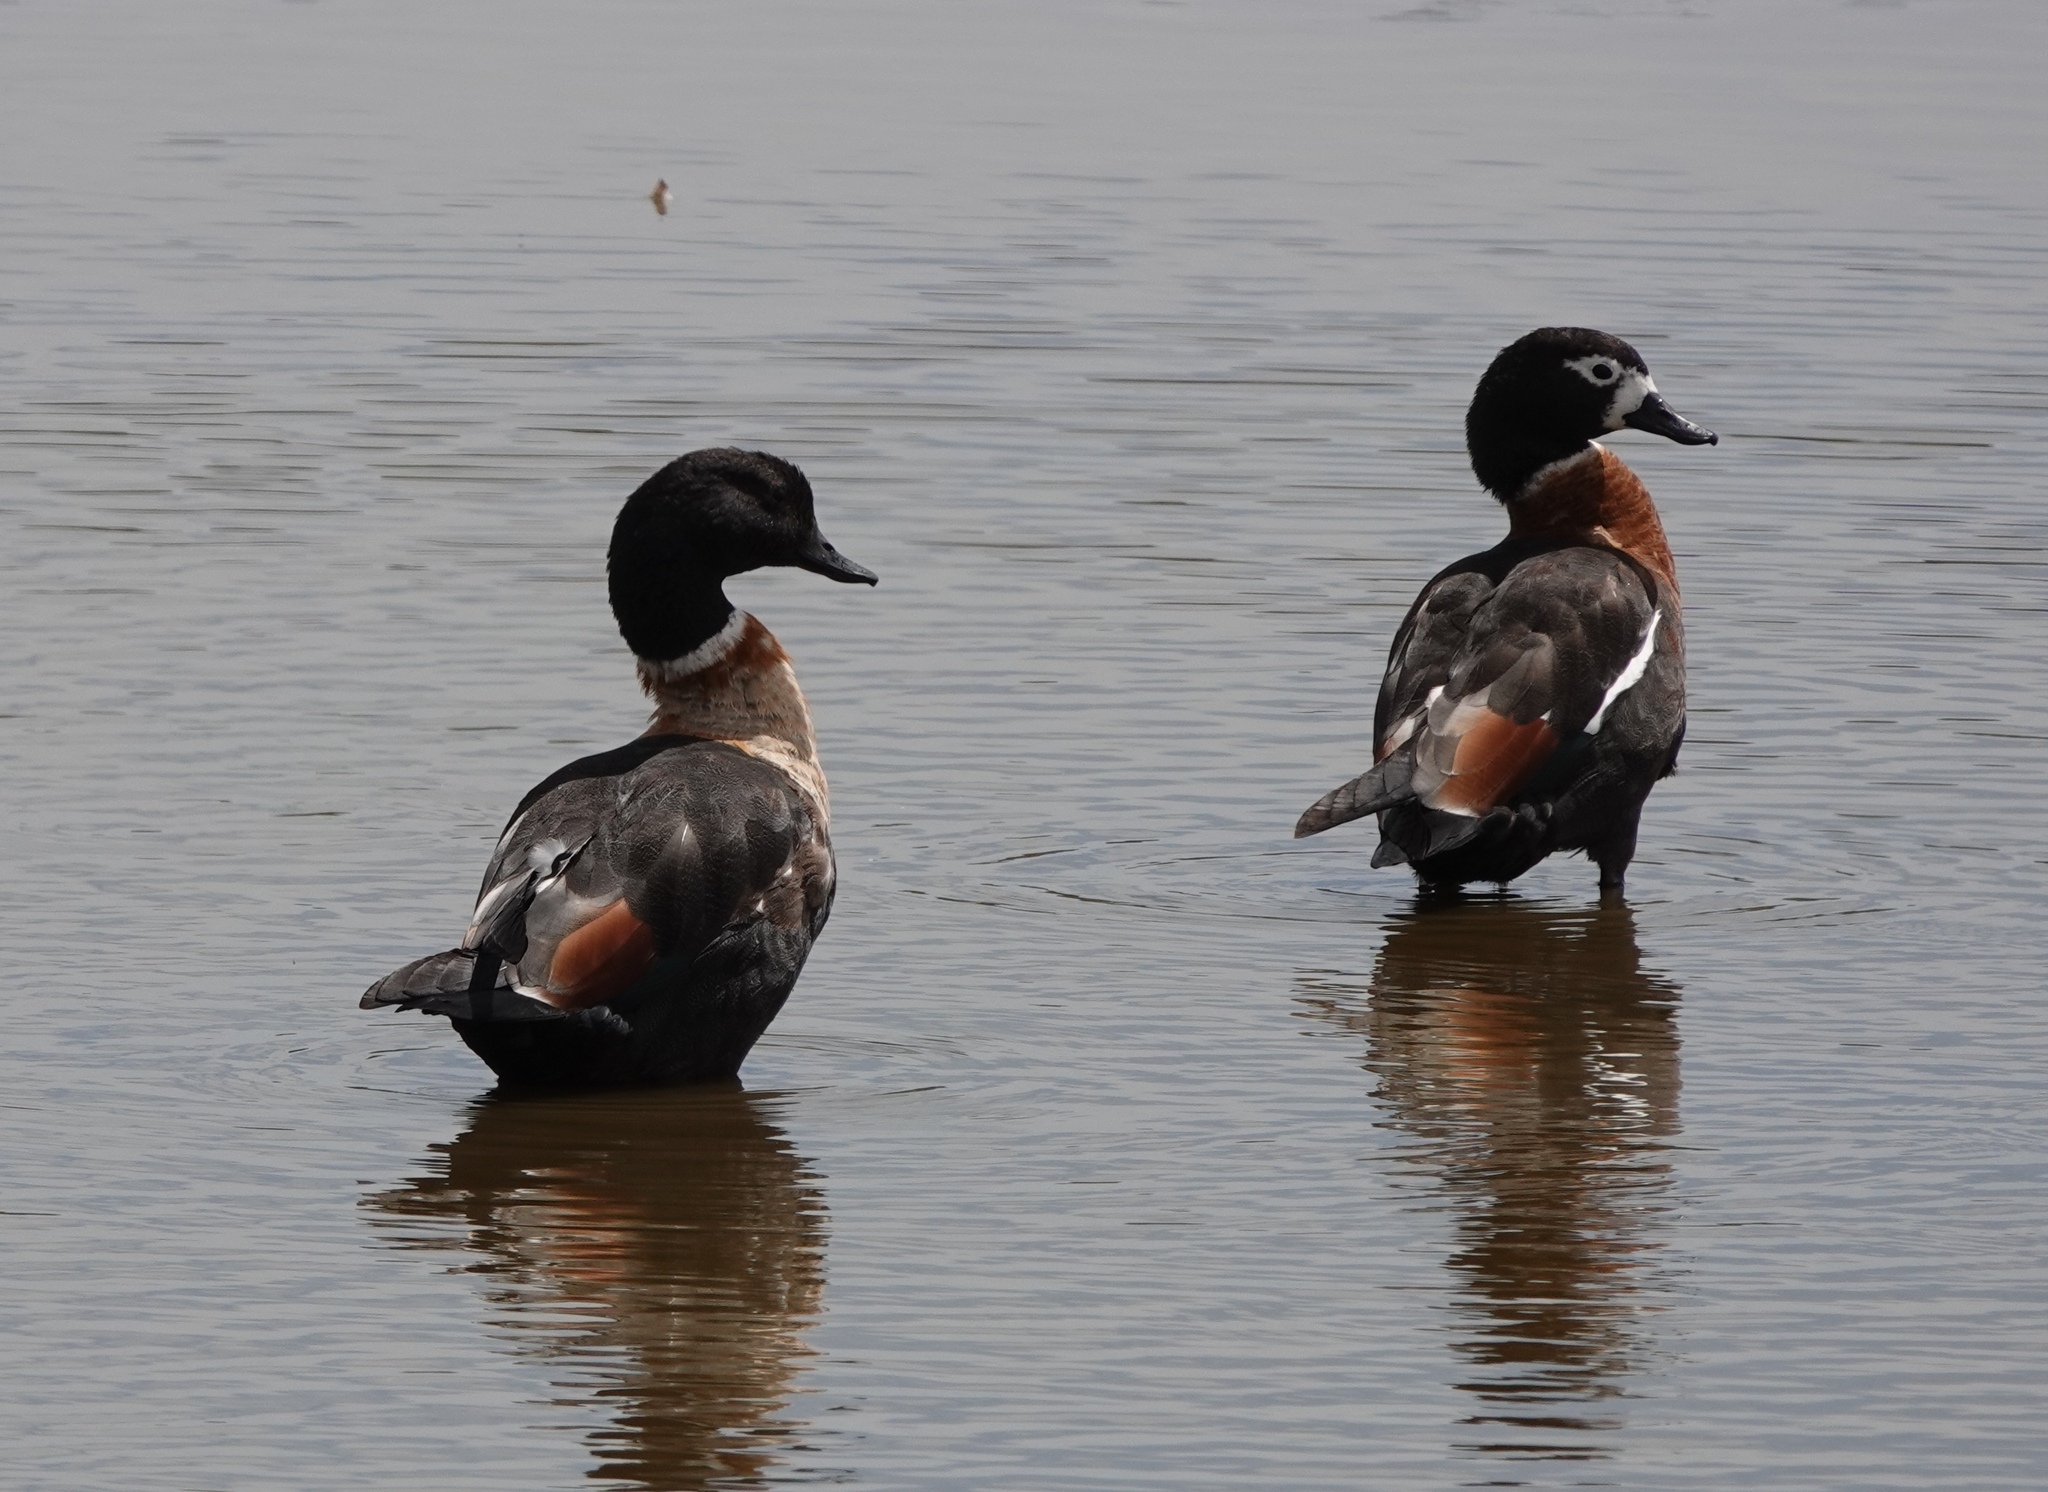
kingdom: Animalia
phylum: Chordata
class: Aves
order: Anseriformes
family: Anatidae
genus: Tadorna
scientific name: Tadorna tadornoides
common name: Australian shelduck
